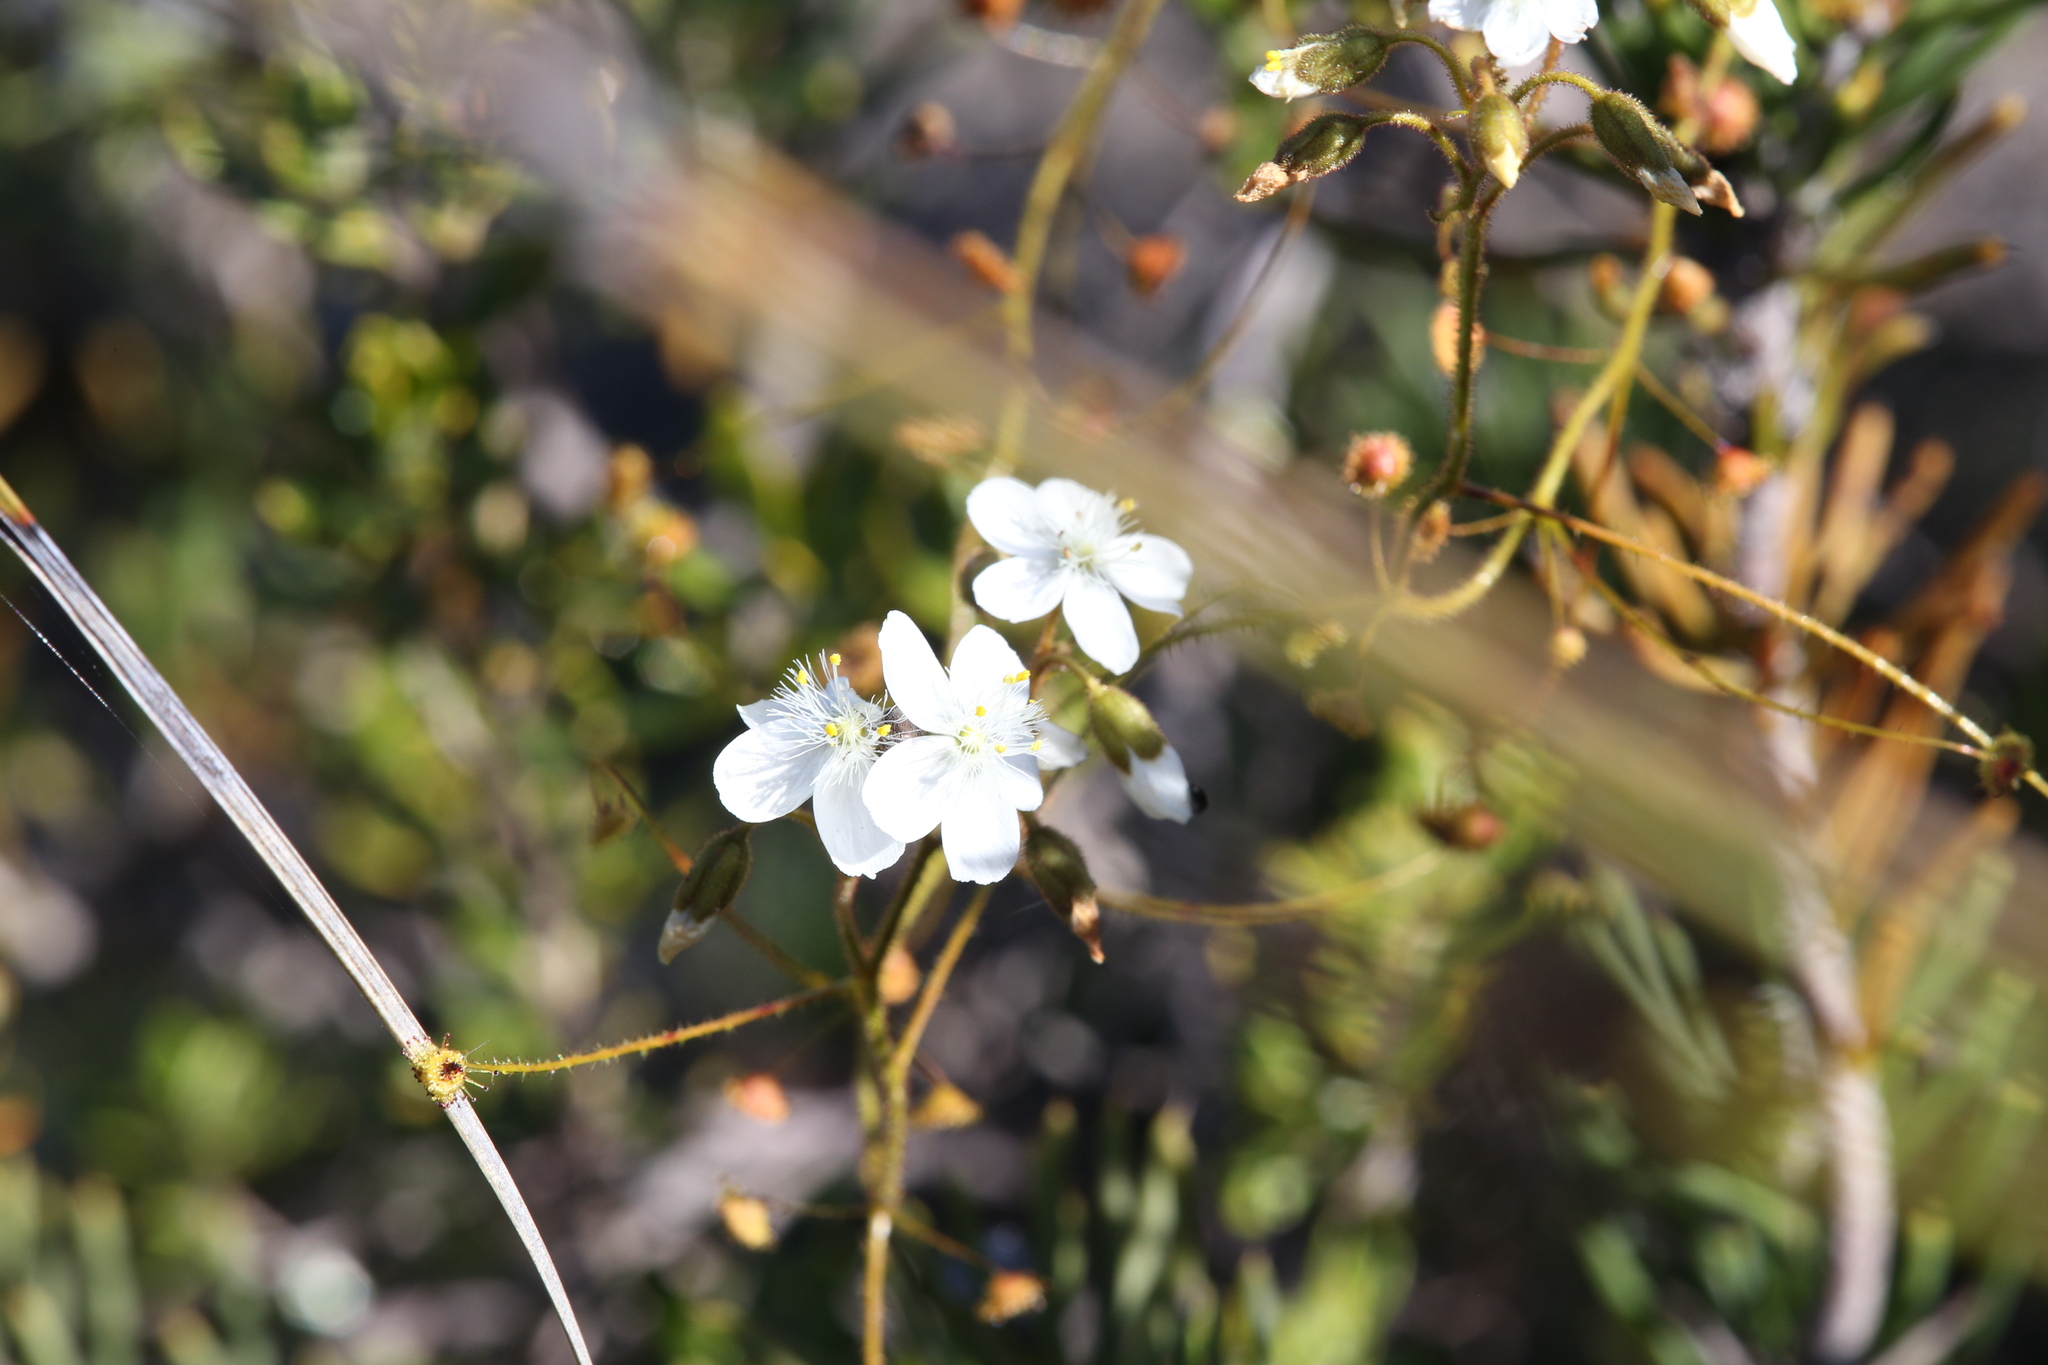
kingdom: Plantae
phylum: Tracheophyta
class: Magnoliopsida
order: Caryophyllales
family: Droseraceae
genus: Drosera
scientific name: Drosera macrantha
